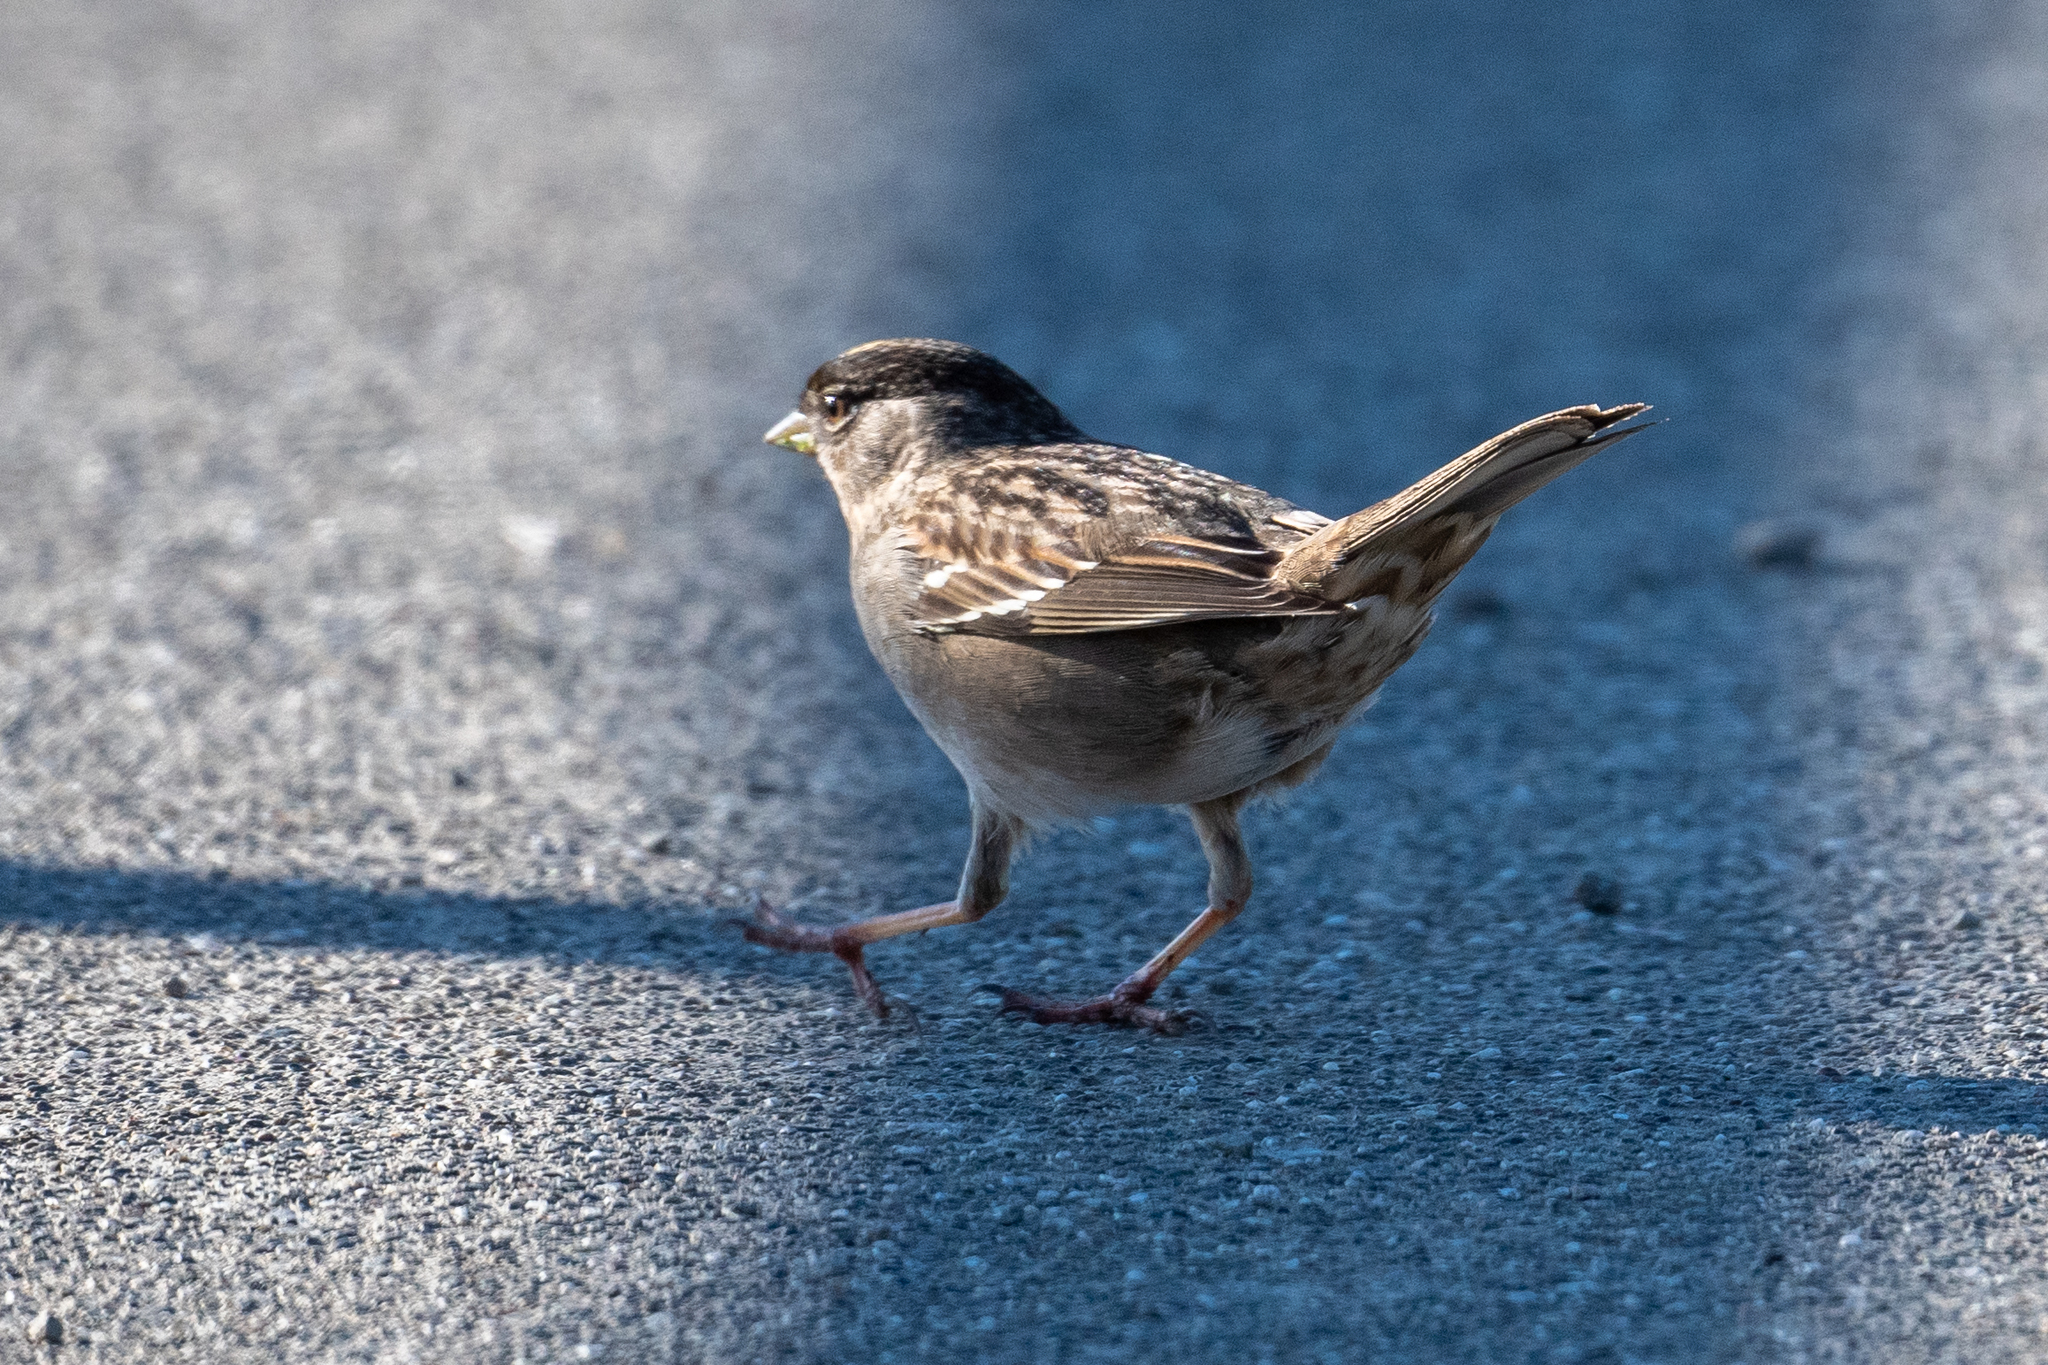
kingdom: Animalia
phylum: Chordata
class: Aves
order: Passeriformes
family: Passerellidae
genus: Zonotrichia
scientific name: Zonotrichia atricapilla
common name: Golden-crowned sparrow
